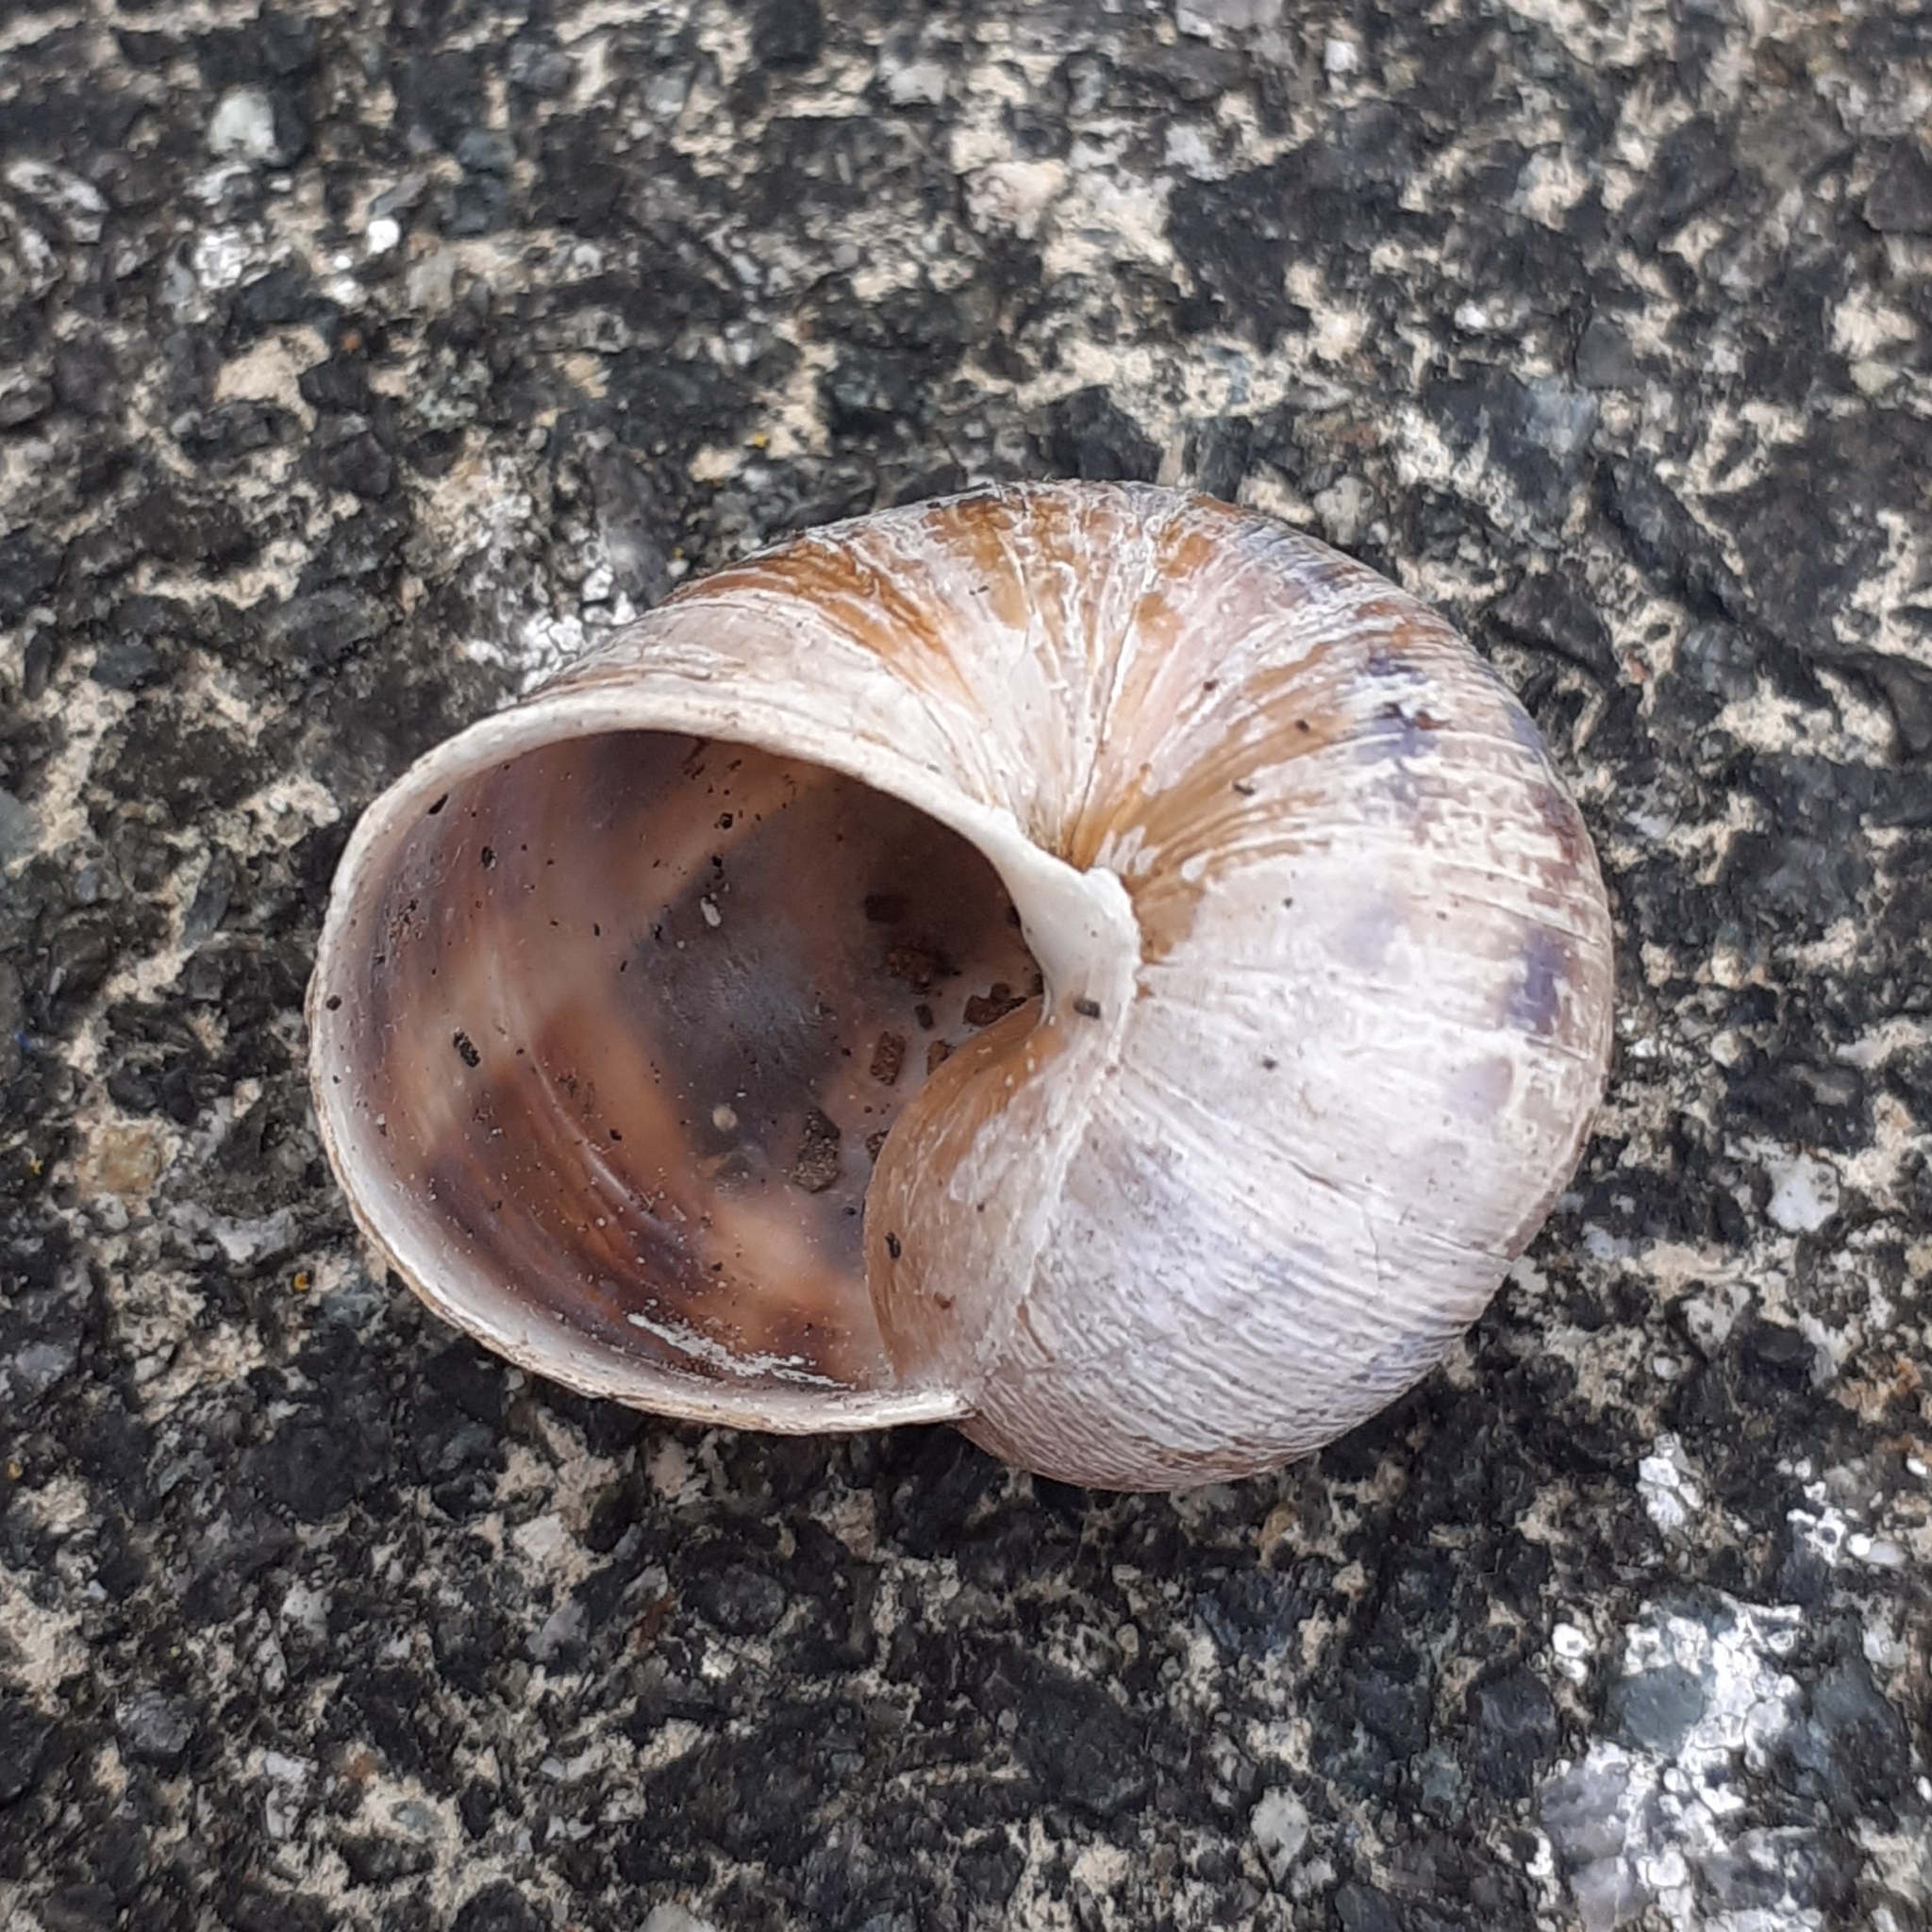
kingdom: Animalia
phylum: Mollusca
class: Gastropoda
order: Stylommatophora
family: Helicidae
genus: Cornu
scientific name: Cornu aspersum
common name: Brown garden snail
